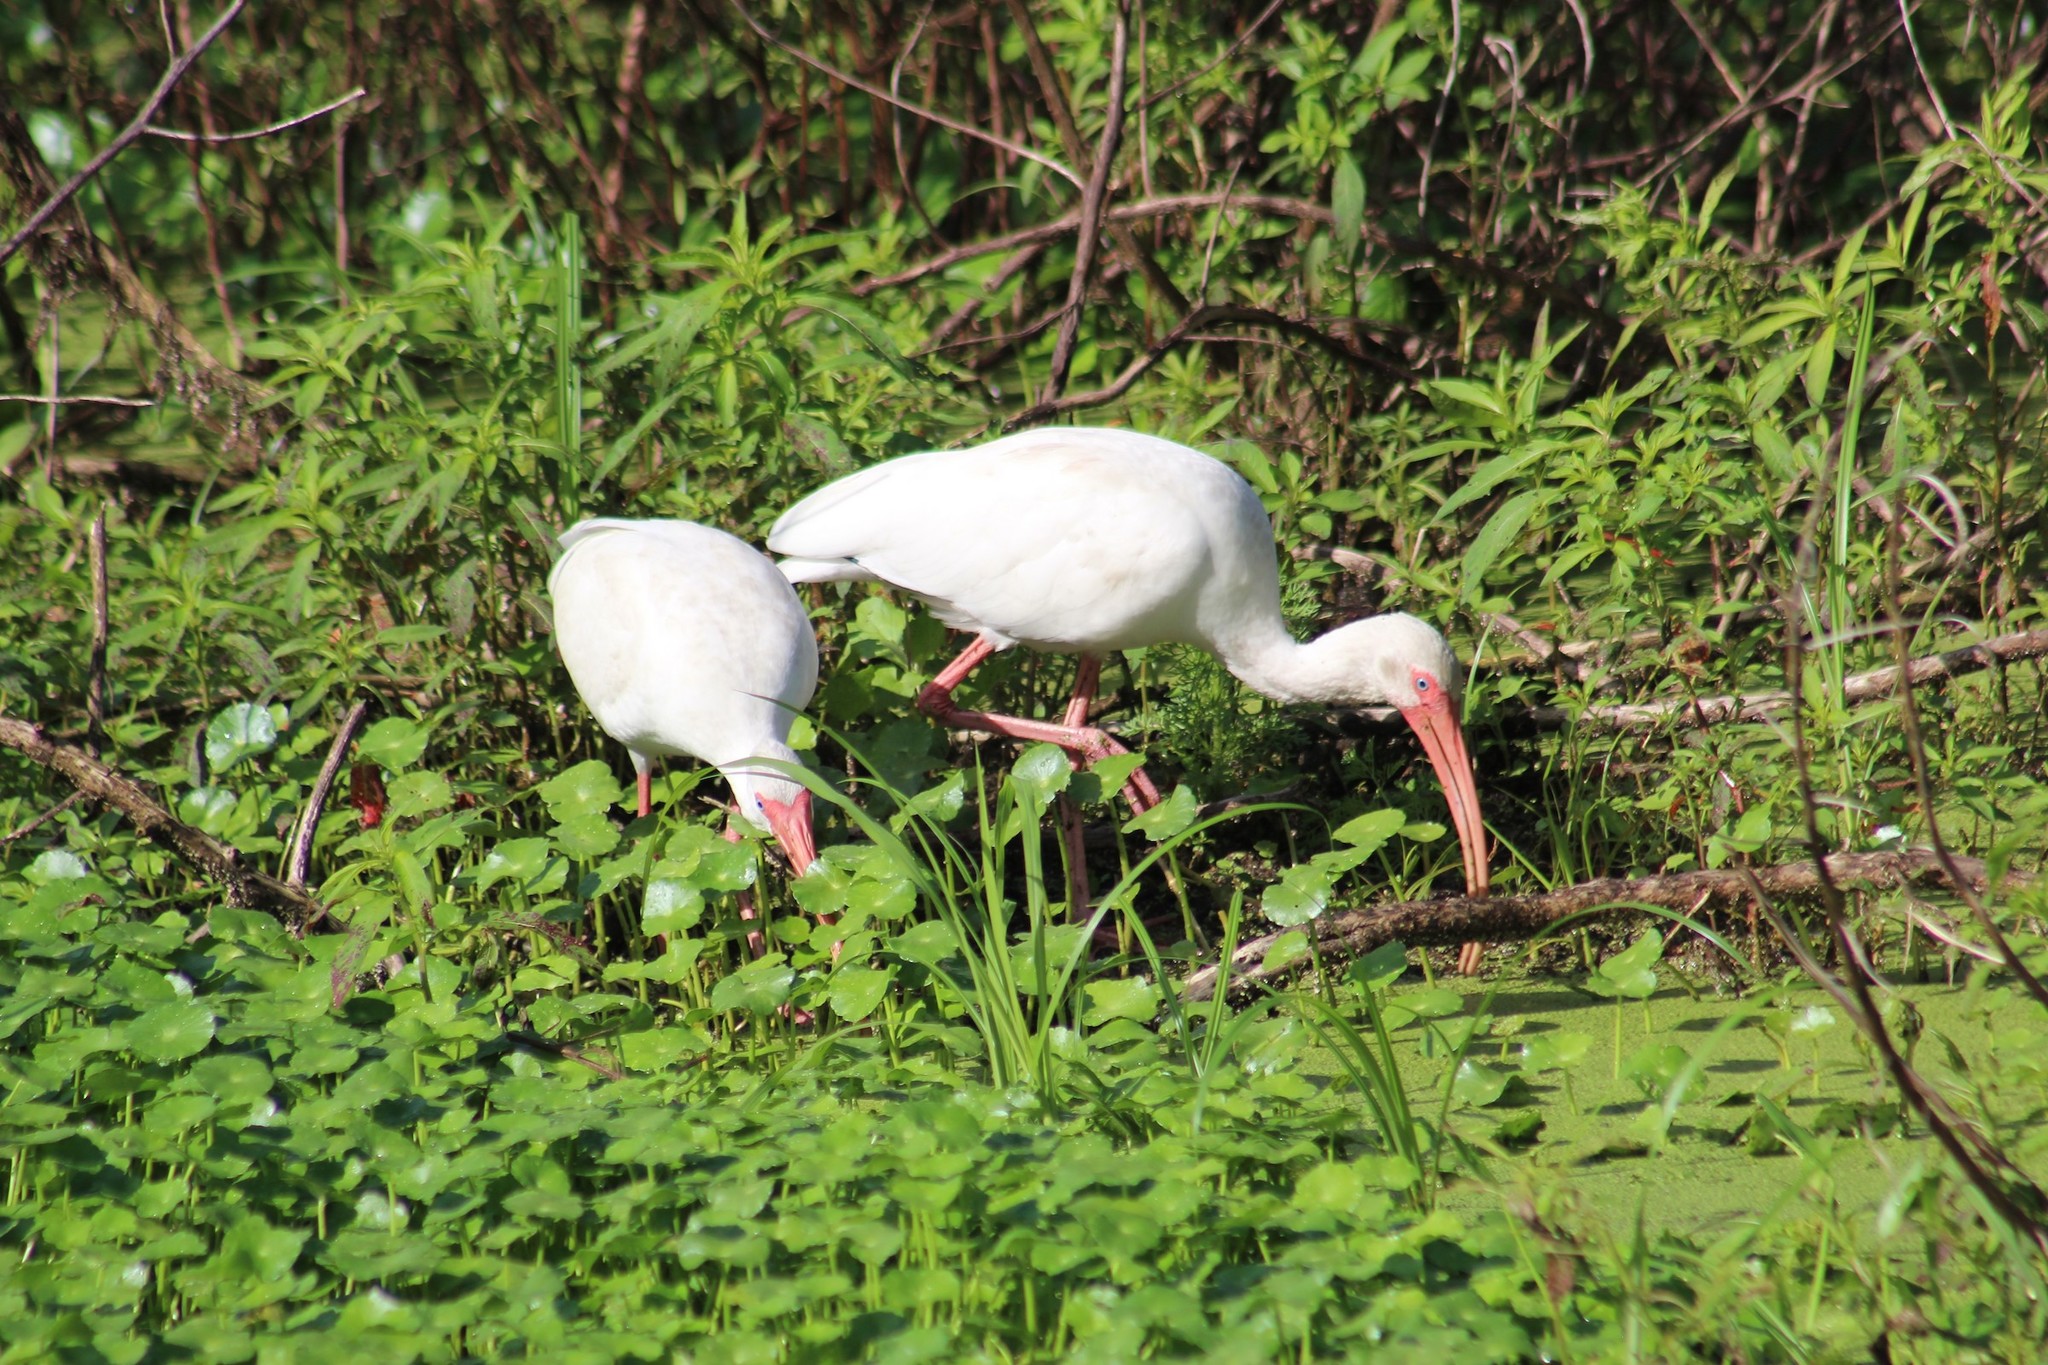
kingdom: Animalia
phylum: Chordata
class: Aves
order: Pelecaniformes
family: Threskiornithidae
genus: Eudocimus
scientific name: Eudocimus albus
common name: White ibis
